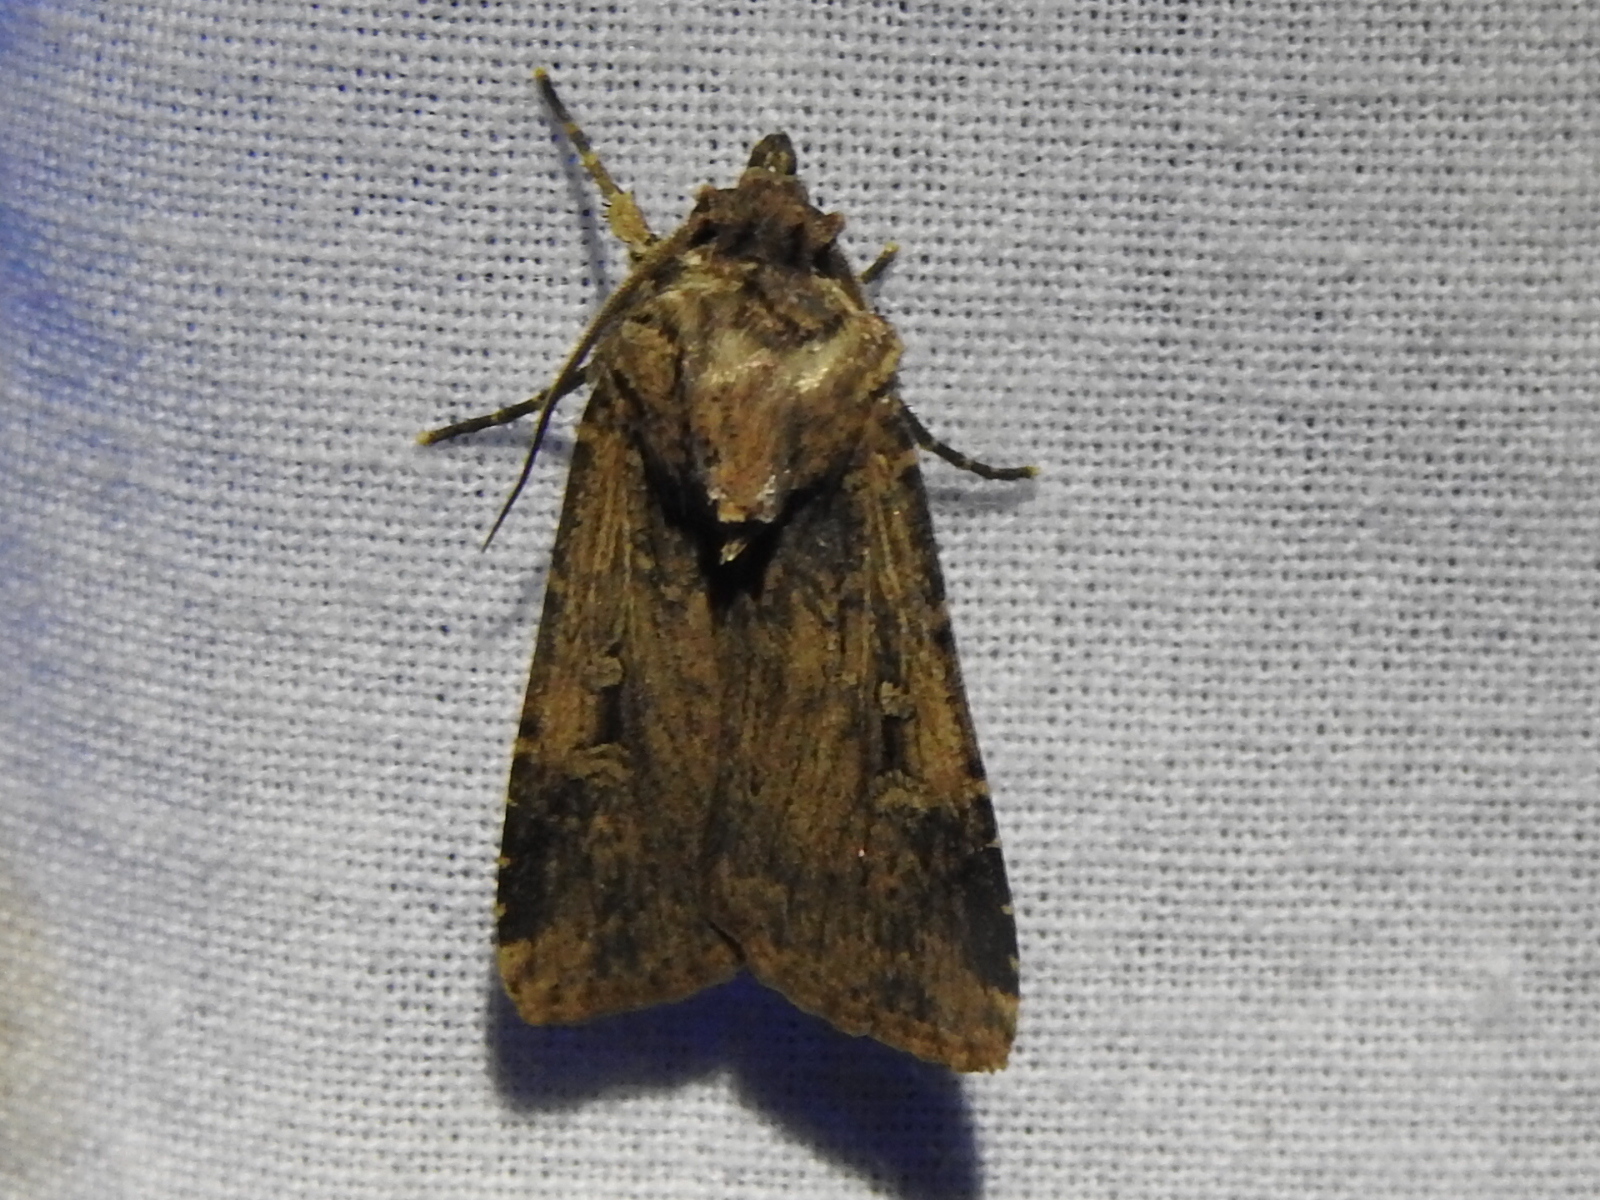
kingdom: Animalia
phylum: Arthropoda
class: Insecta
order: Lepidoptera
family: Noctuidae
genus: Feltia
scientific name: Feltia subterranea
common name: Granulate cutworm
